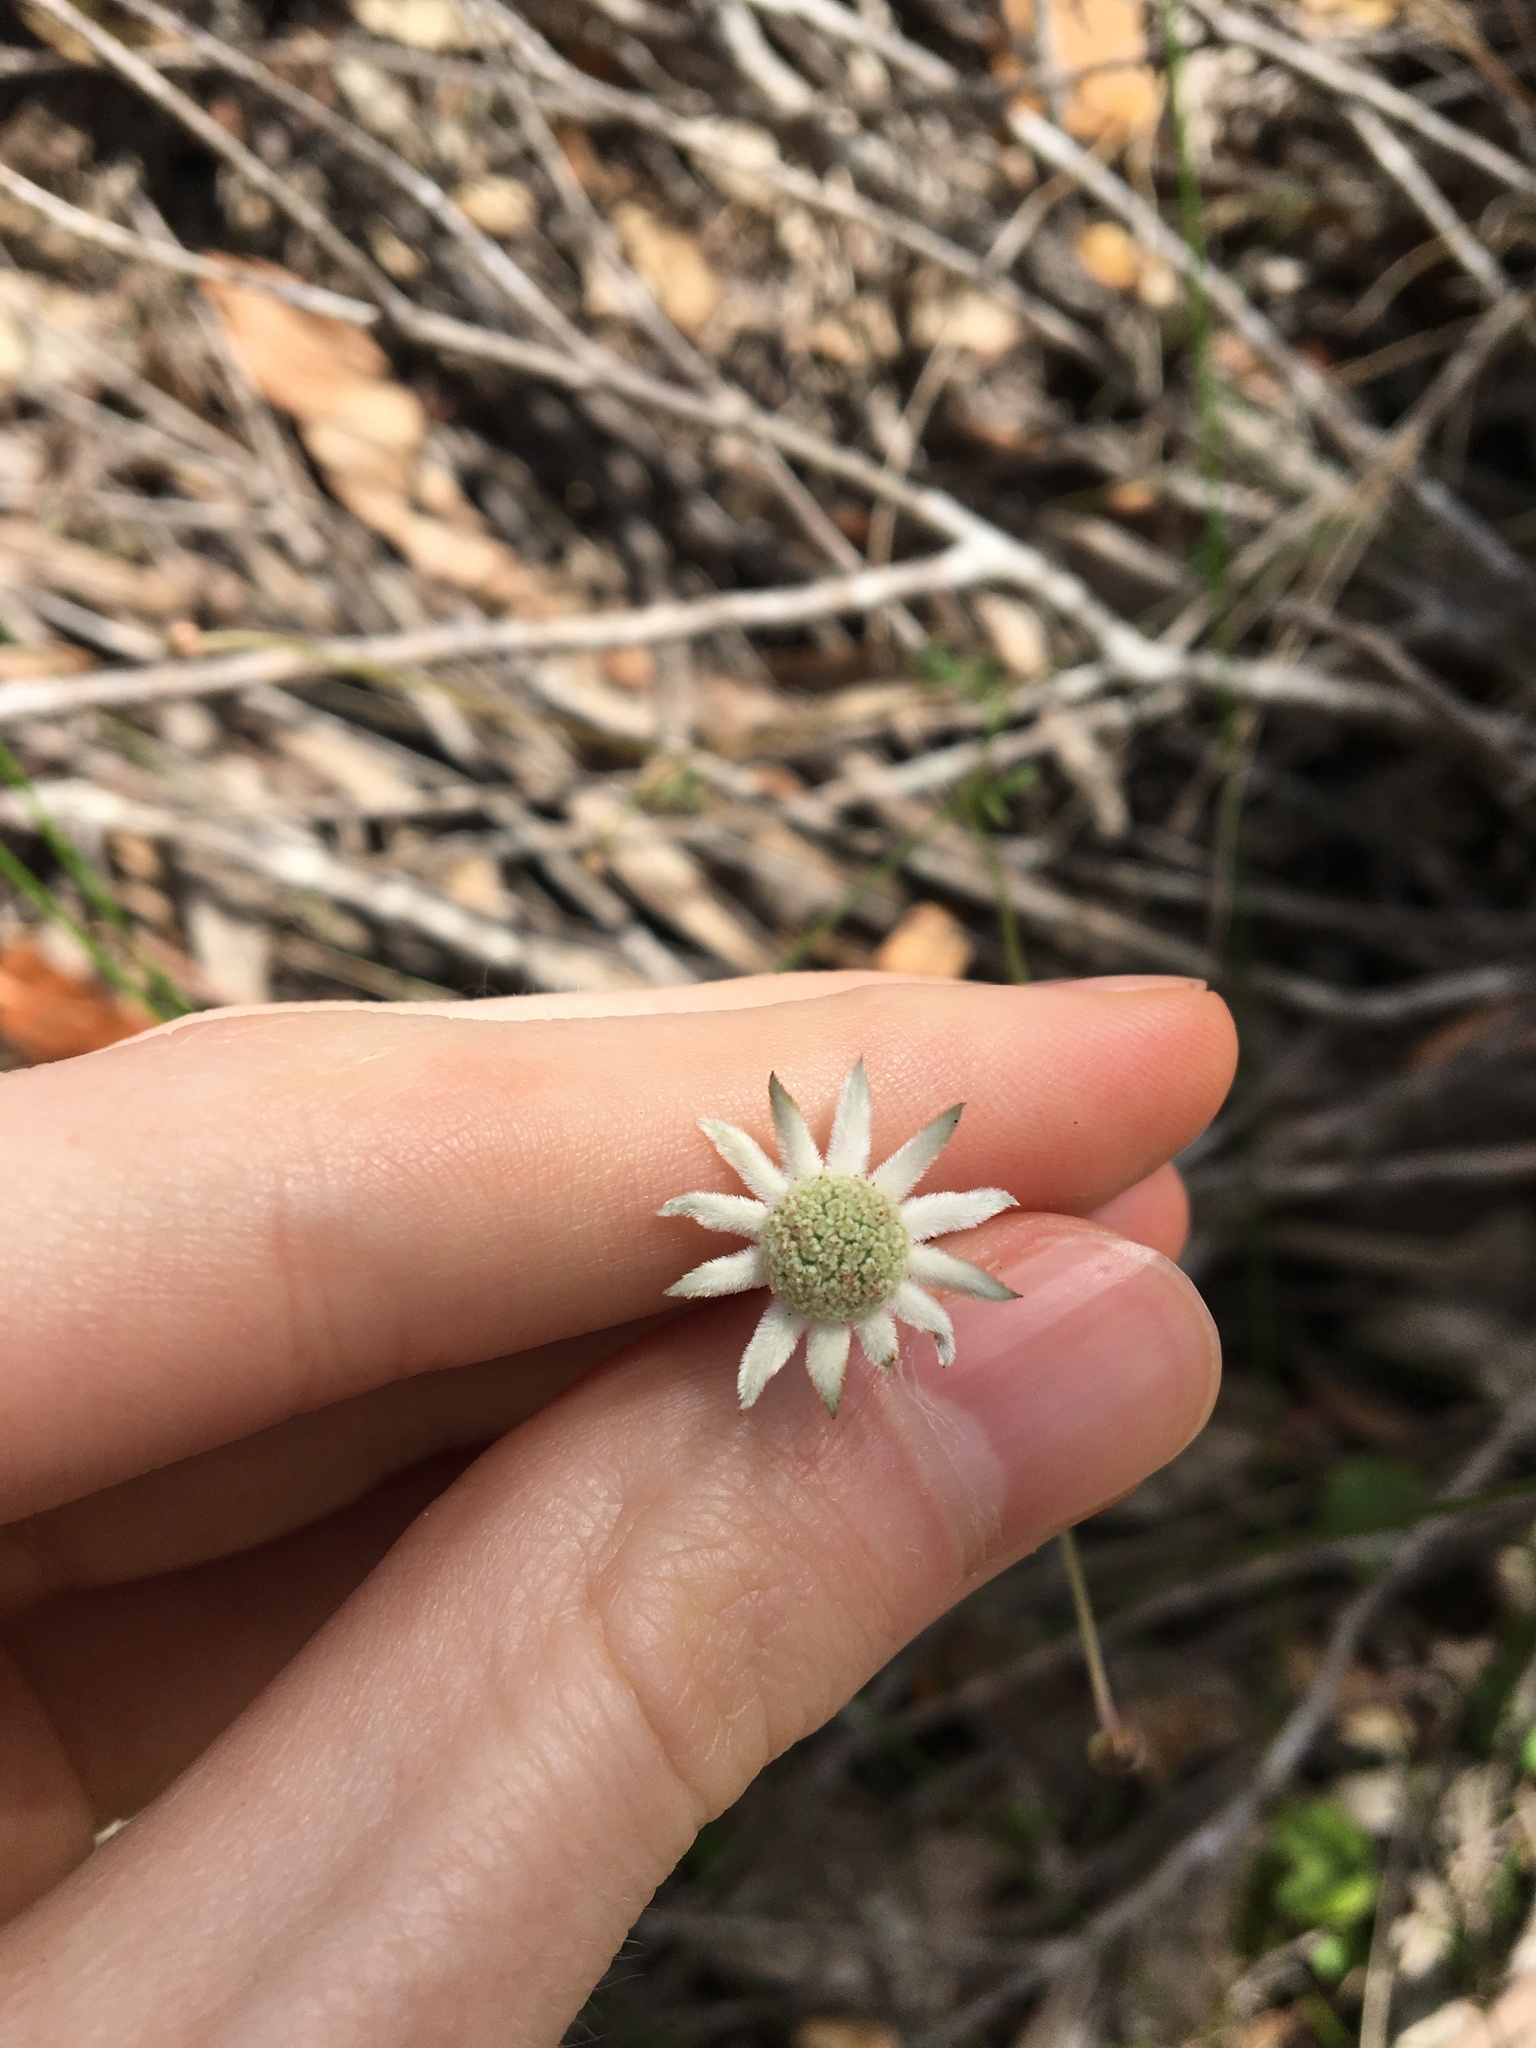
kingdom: Plantae
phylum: Tracheophyta
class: Magnoliopsida
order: Apiales
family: Apiaceae
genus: Actinotus
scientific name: Actinotus minor
